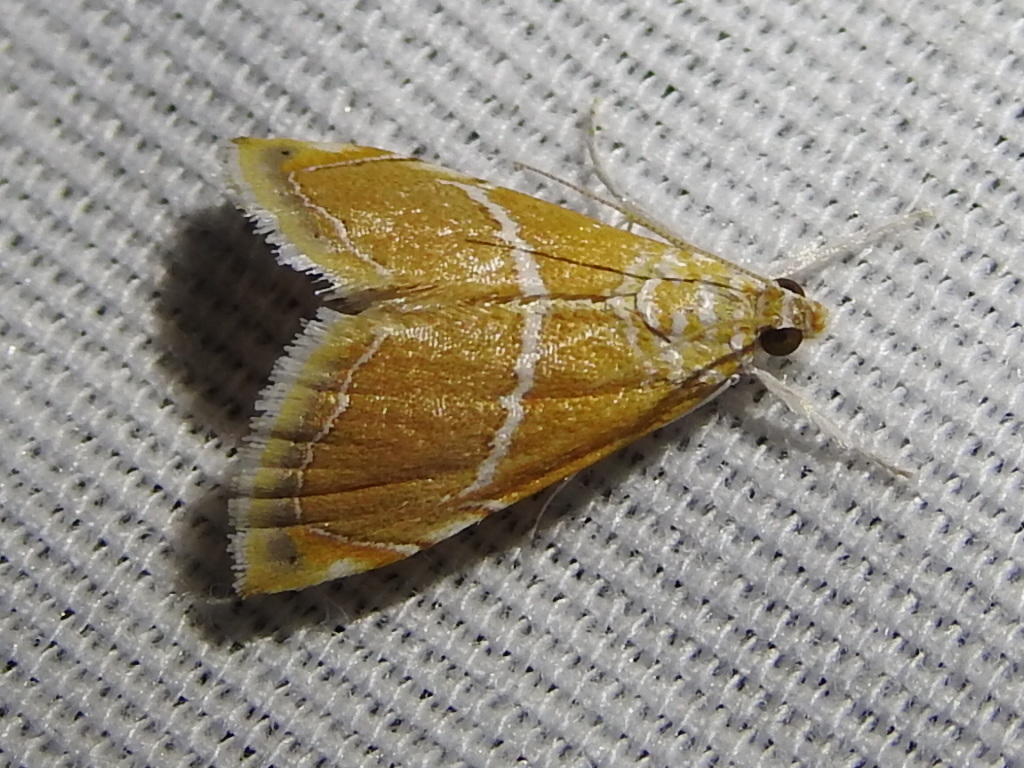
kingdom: Animalia
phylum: Arthropoda
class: Insecta
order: Lepidoptera
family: Crambidae
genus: Abegesta
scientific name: Abegesta reluctalis
